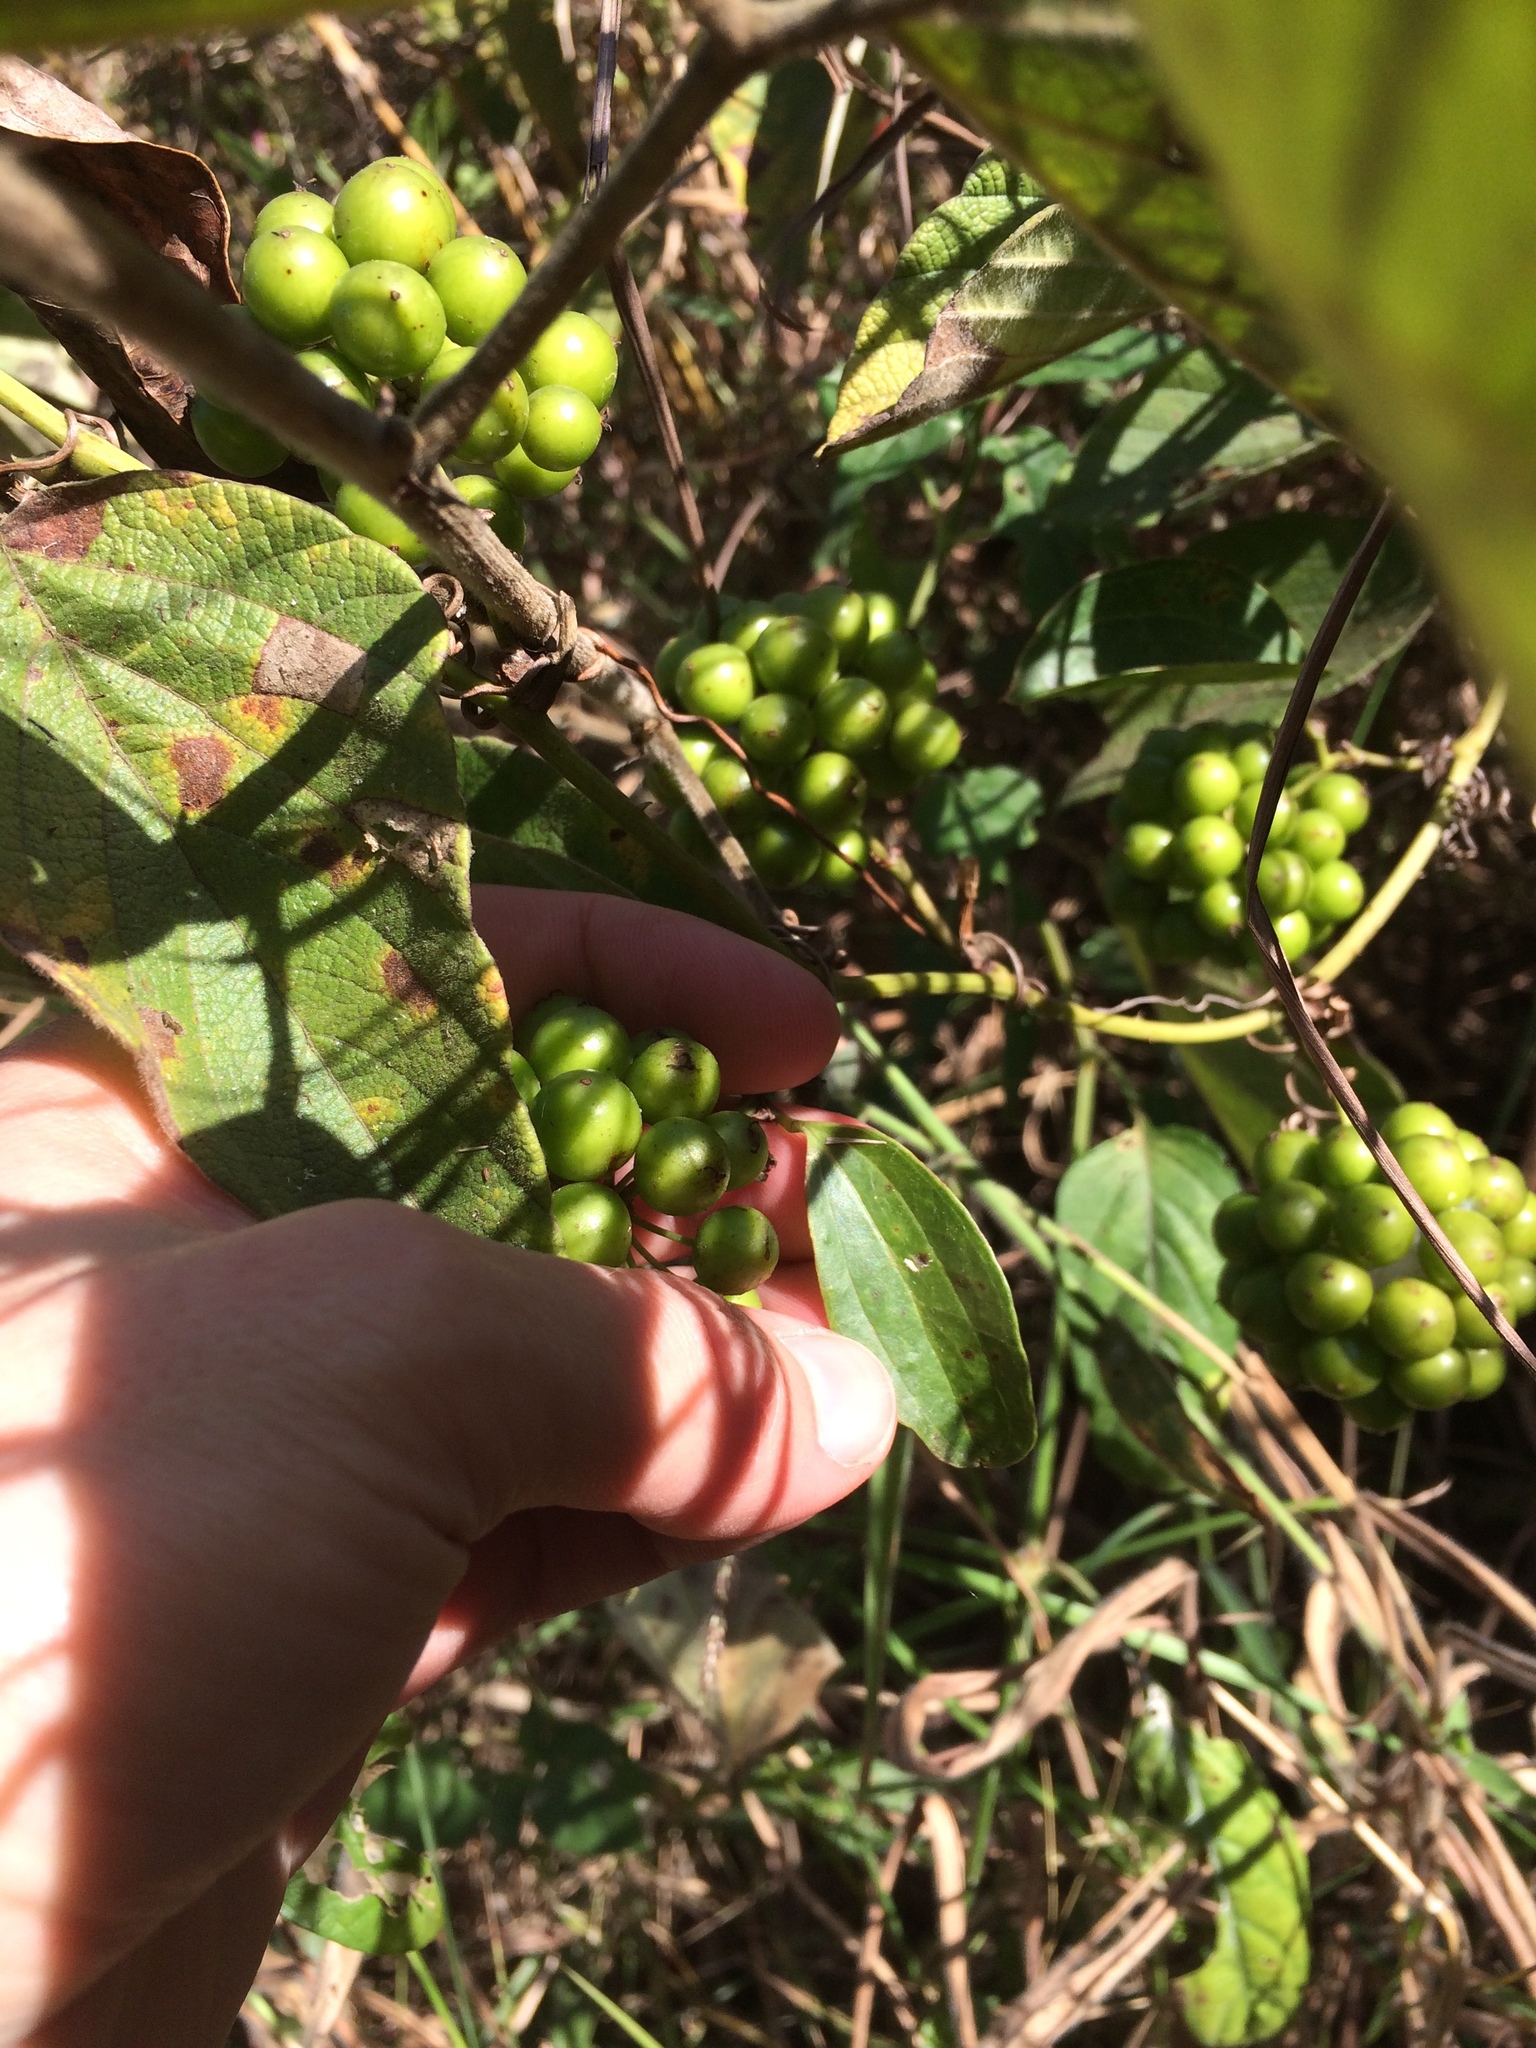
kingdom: Plantae
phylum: Tracheophyta
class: Liliopsida
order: Liliales
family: Smilacaceae
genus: Smilax
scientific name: Smilax anceps
